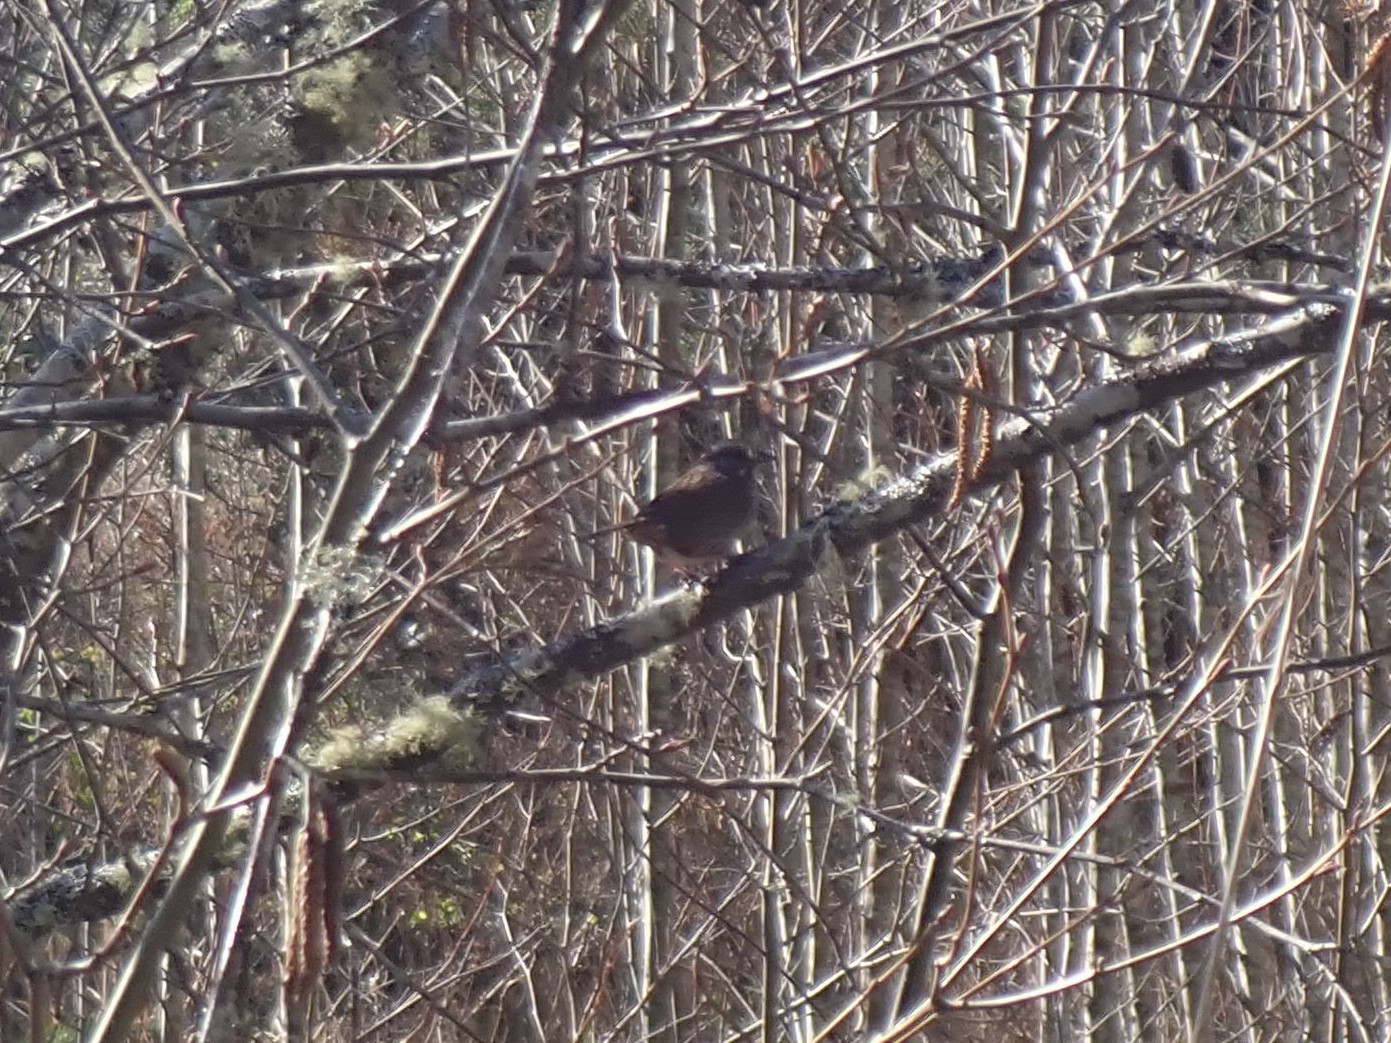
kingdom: Animalia
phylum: Chordata
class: Aves
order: Passeriformes
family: Passerellidae
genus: Melospiza
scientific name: Melospiza melodia
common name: Song sparrow
